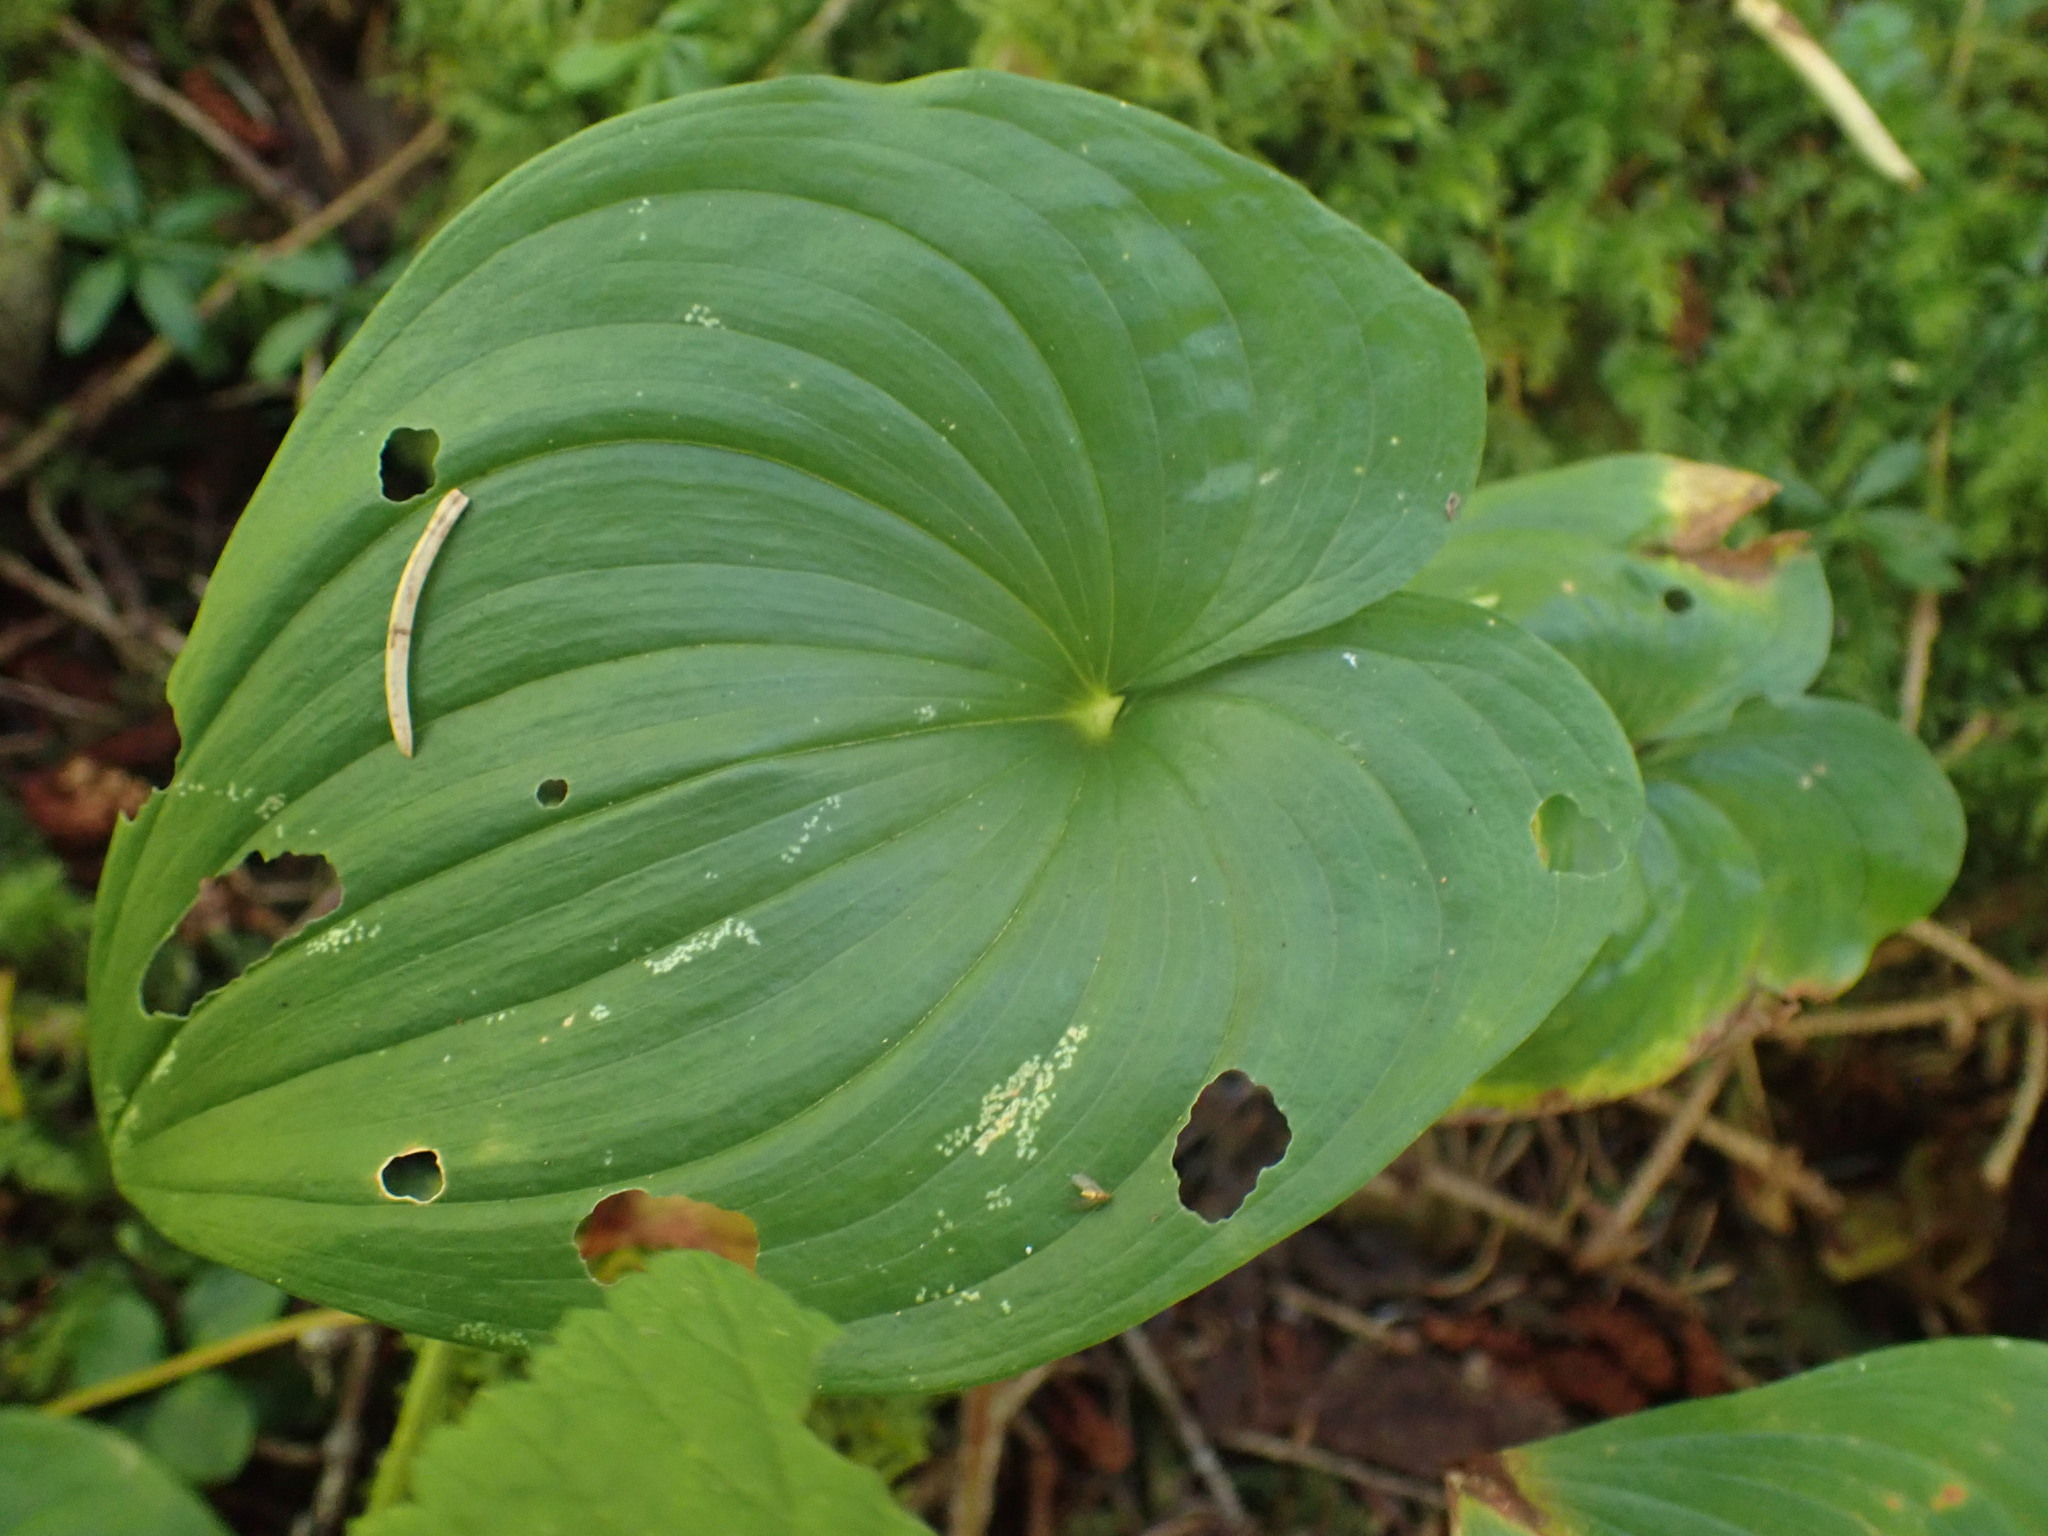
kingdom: Plantae
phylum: Tracheophyta
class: Liliopsida
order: Asparagales
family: Asparagaceae
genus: Maianthemum
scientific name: Maianthemum dilatatum
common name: False lily-of-the-valley
